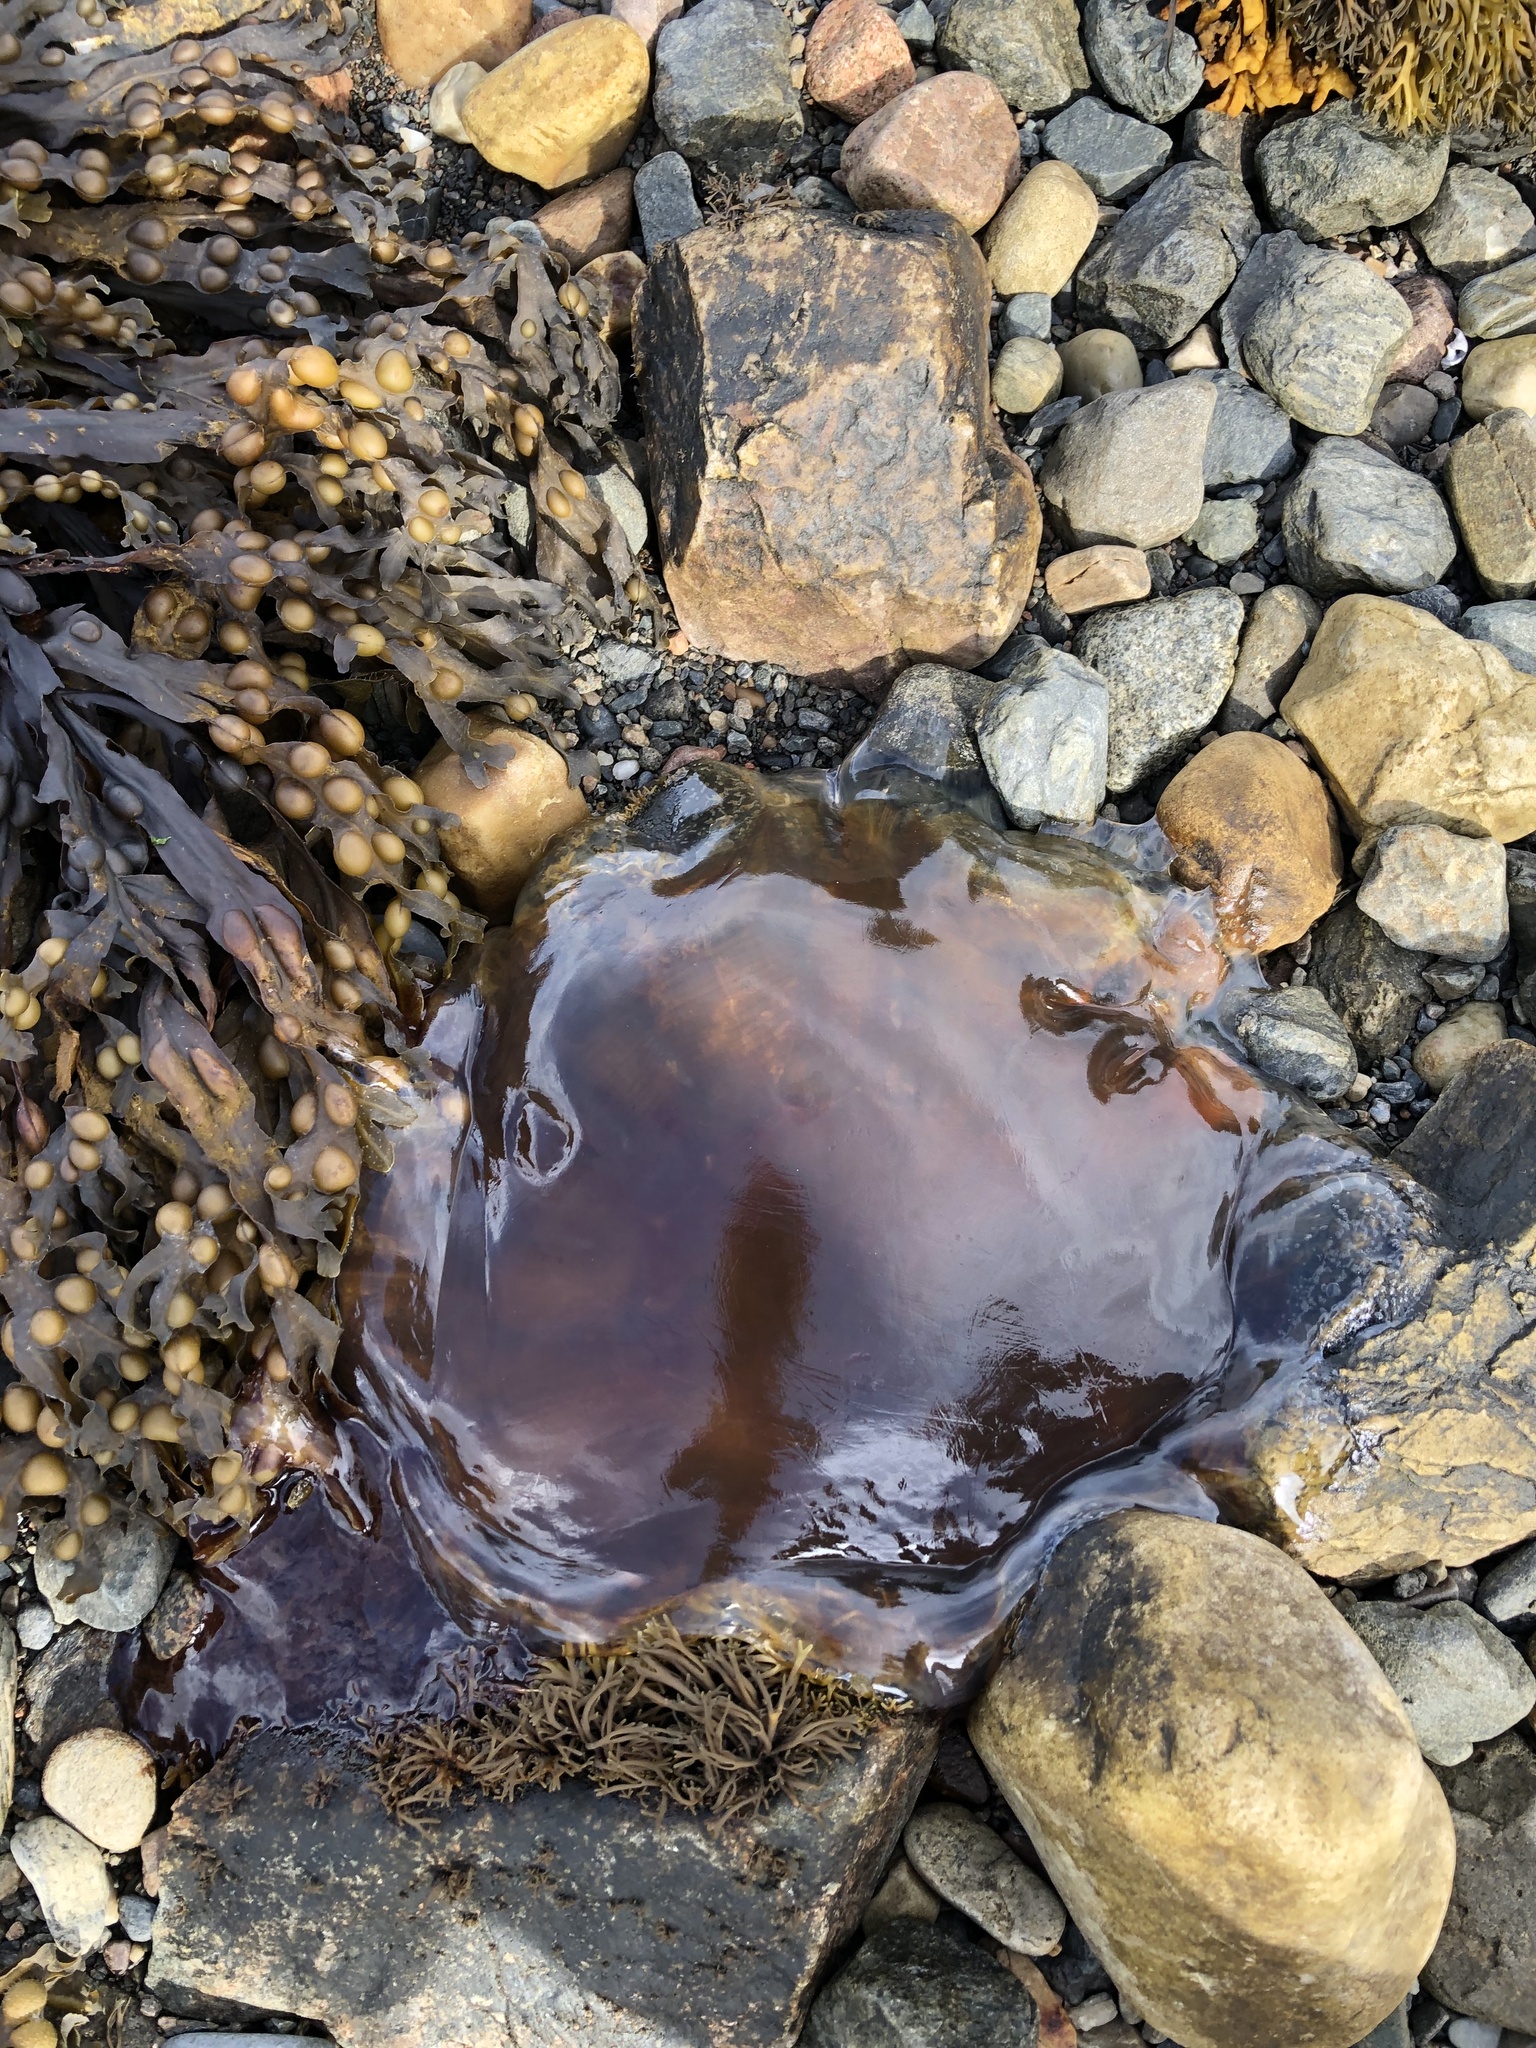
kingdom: Animalia
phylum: Cnidaria
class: Scyphozoa
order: Semaeostomeae
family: Cyaneidae
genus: Cyanea
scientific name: Cyanea capillata
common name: Lion's mane jellyfish
